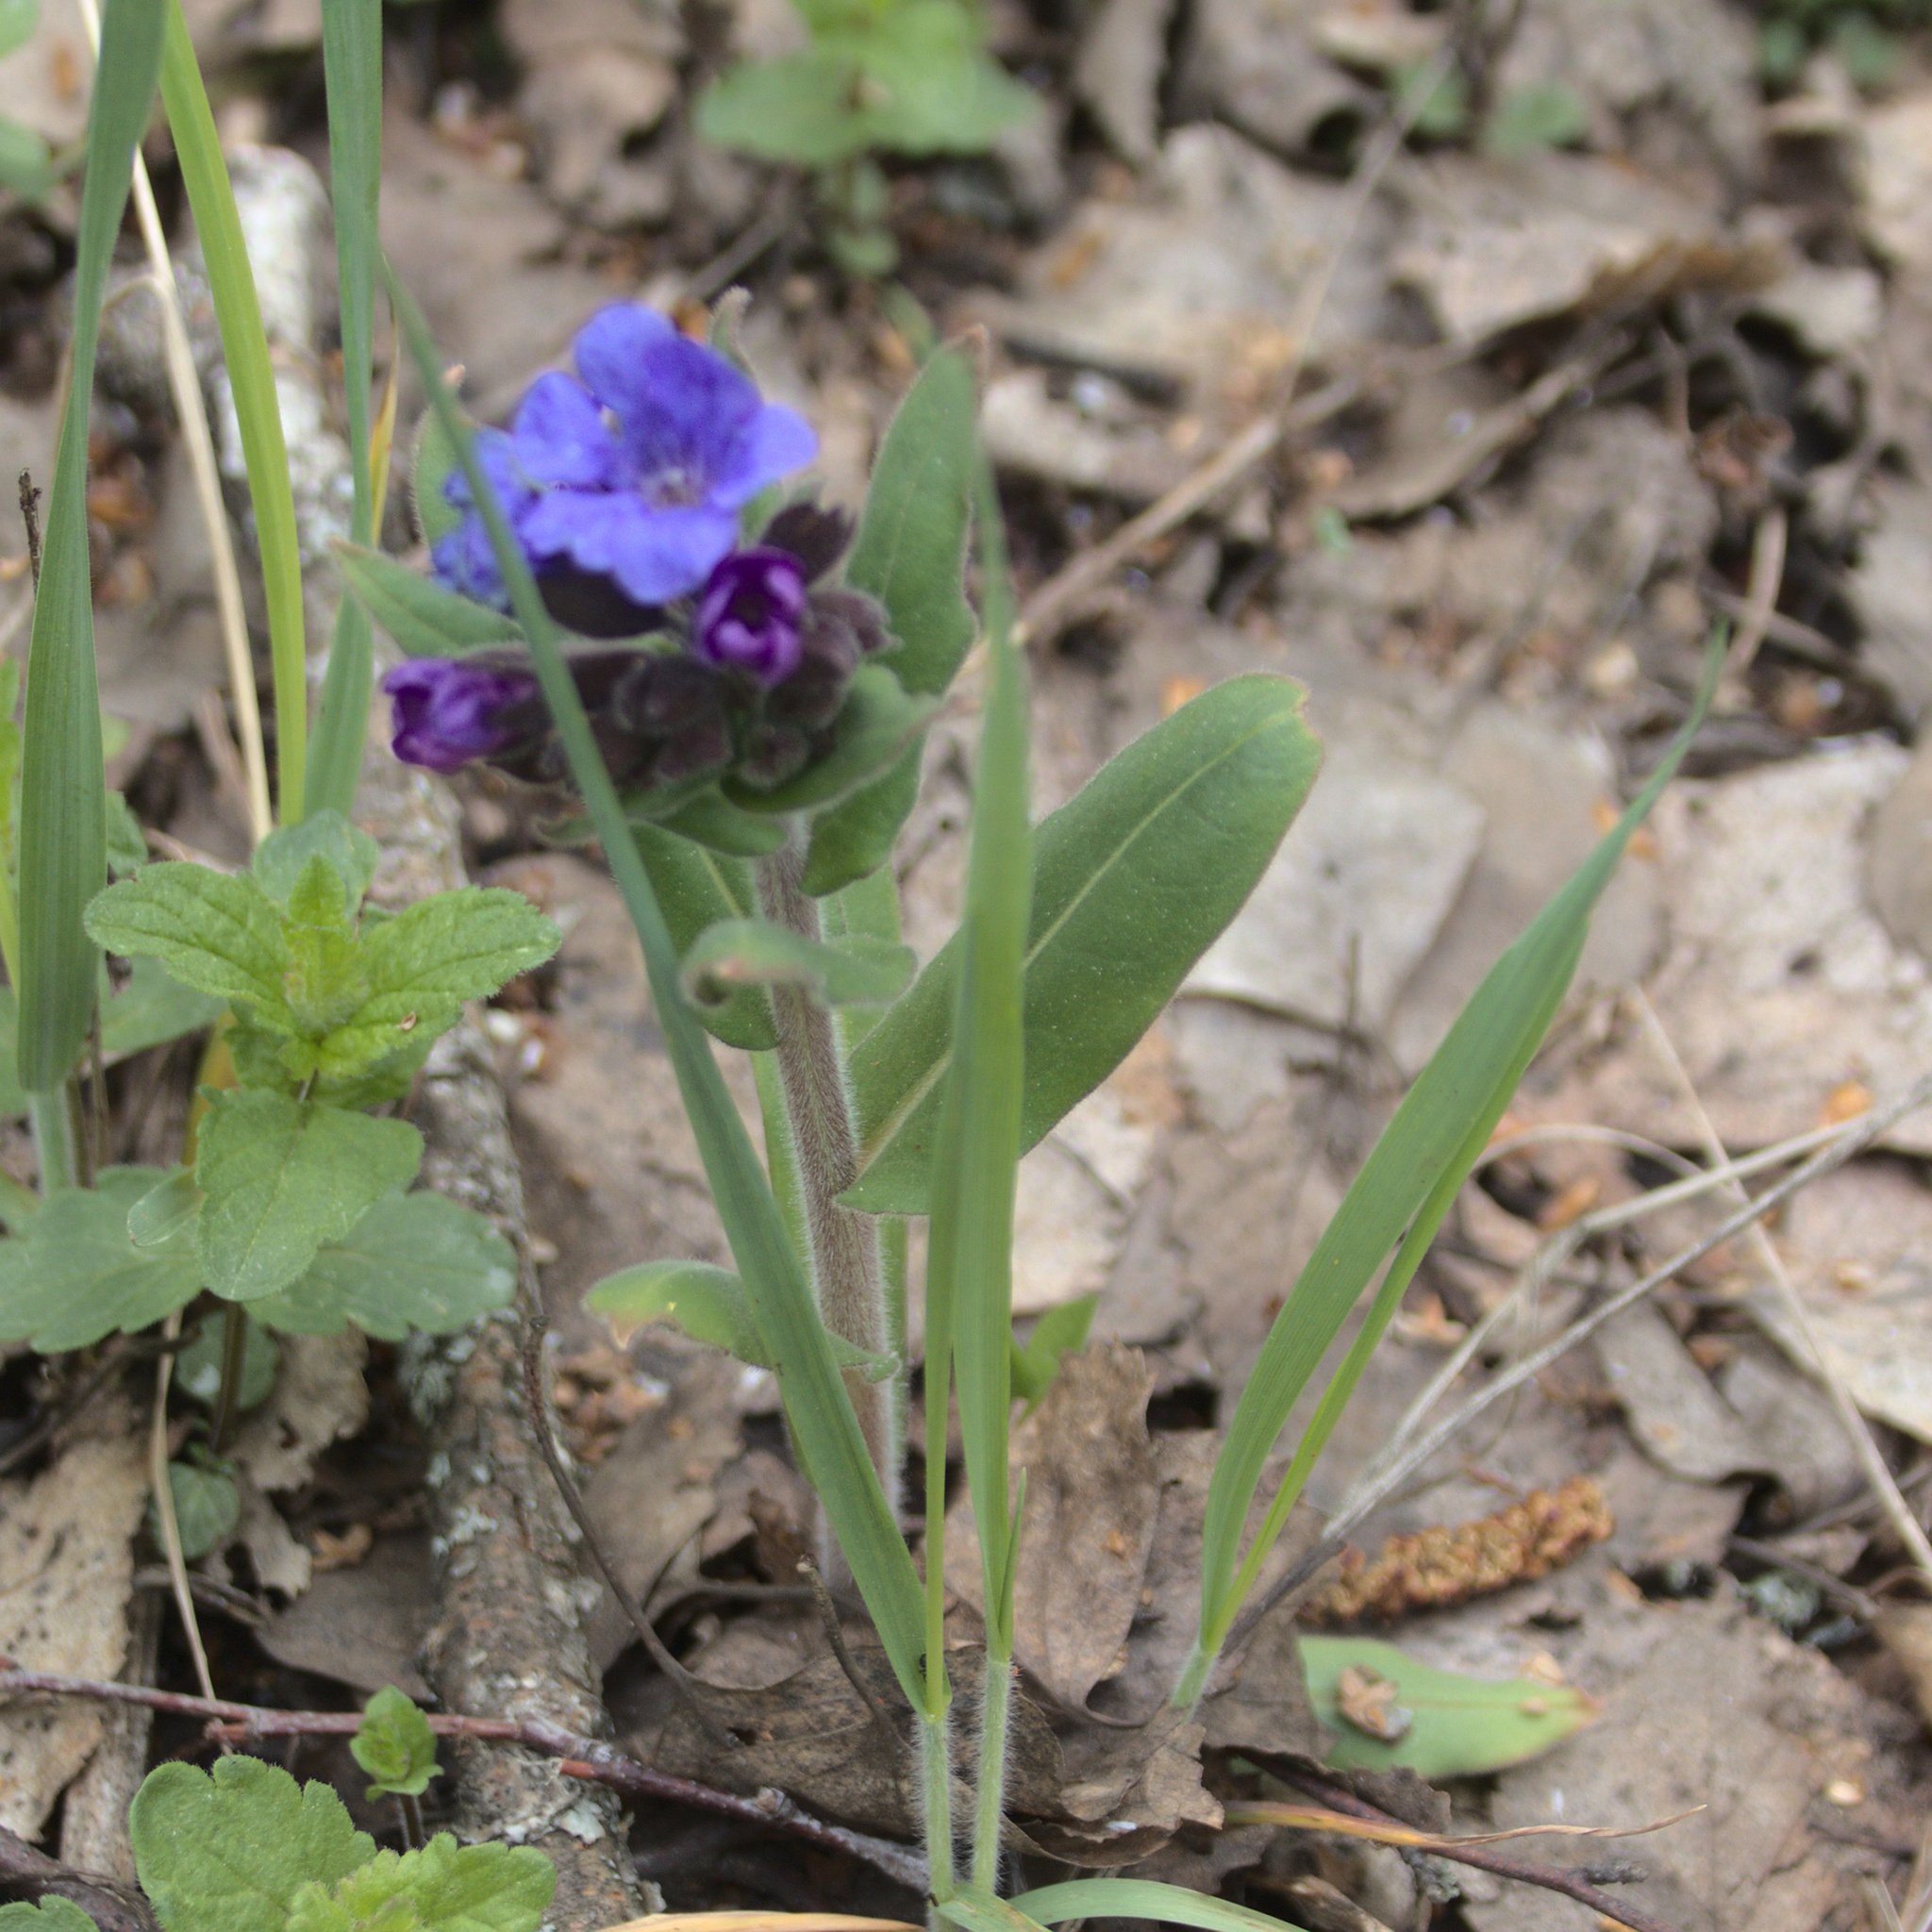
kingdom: Plantae
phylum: Tracheophyta
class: Magnoliopsida
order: Boraginales
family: Boraginaceae
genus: Pulmonaria
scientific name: Pulmonaria mollis
